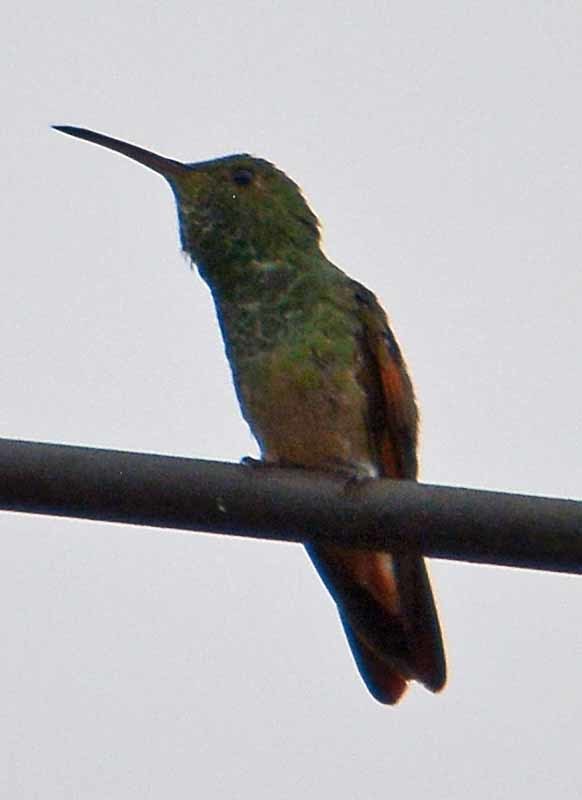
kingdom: Animalia
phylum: Chordata
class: Aves
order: Apodiformes
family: Trochilidae
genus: Saucerottia
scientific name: Saucerottia beryllina
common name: Berylline hummingbird
